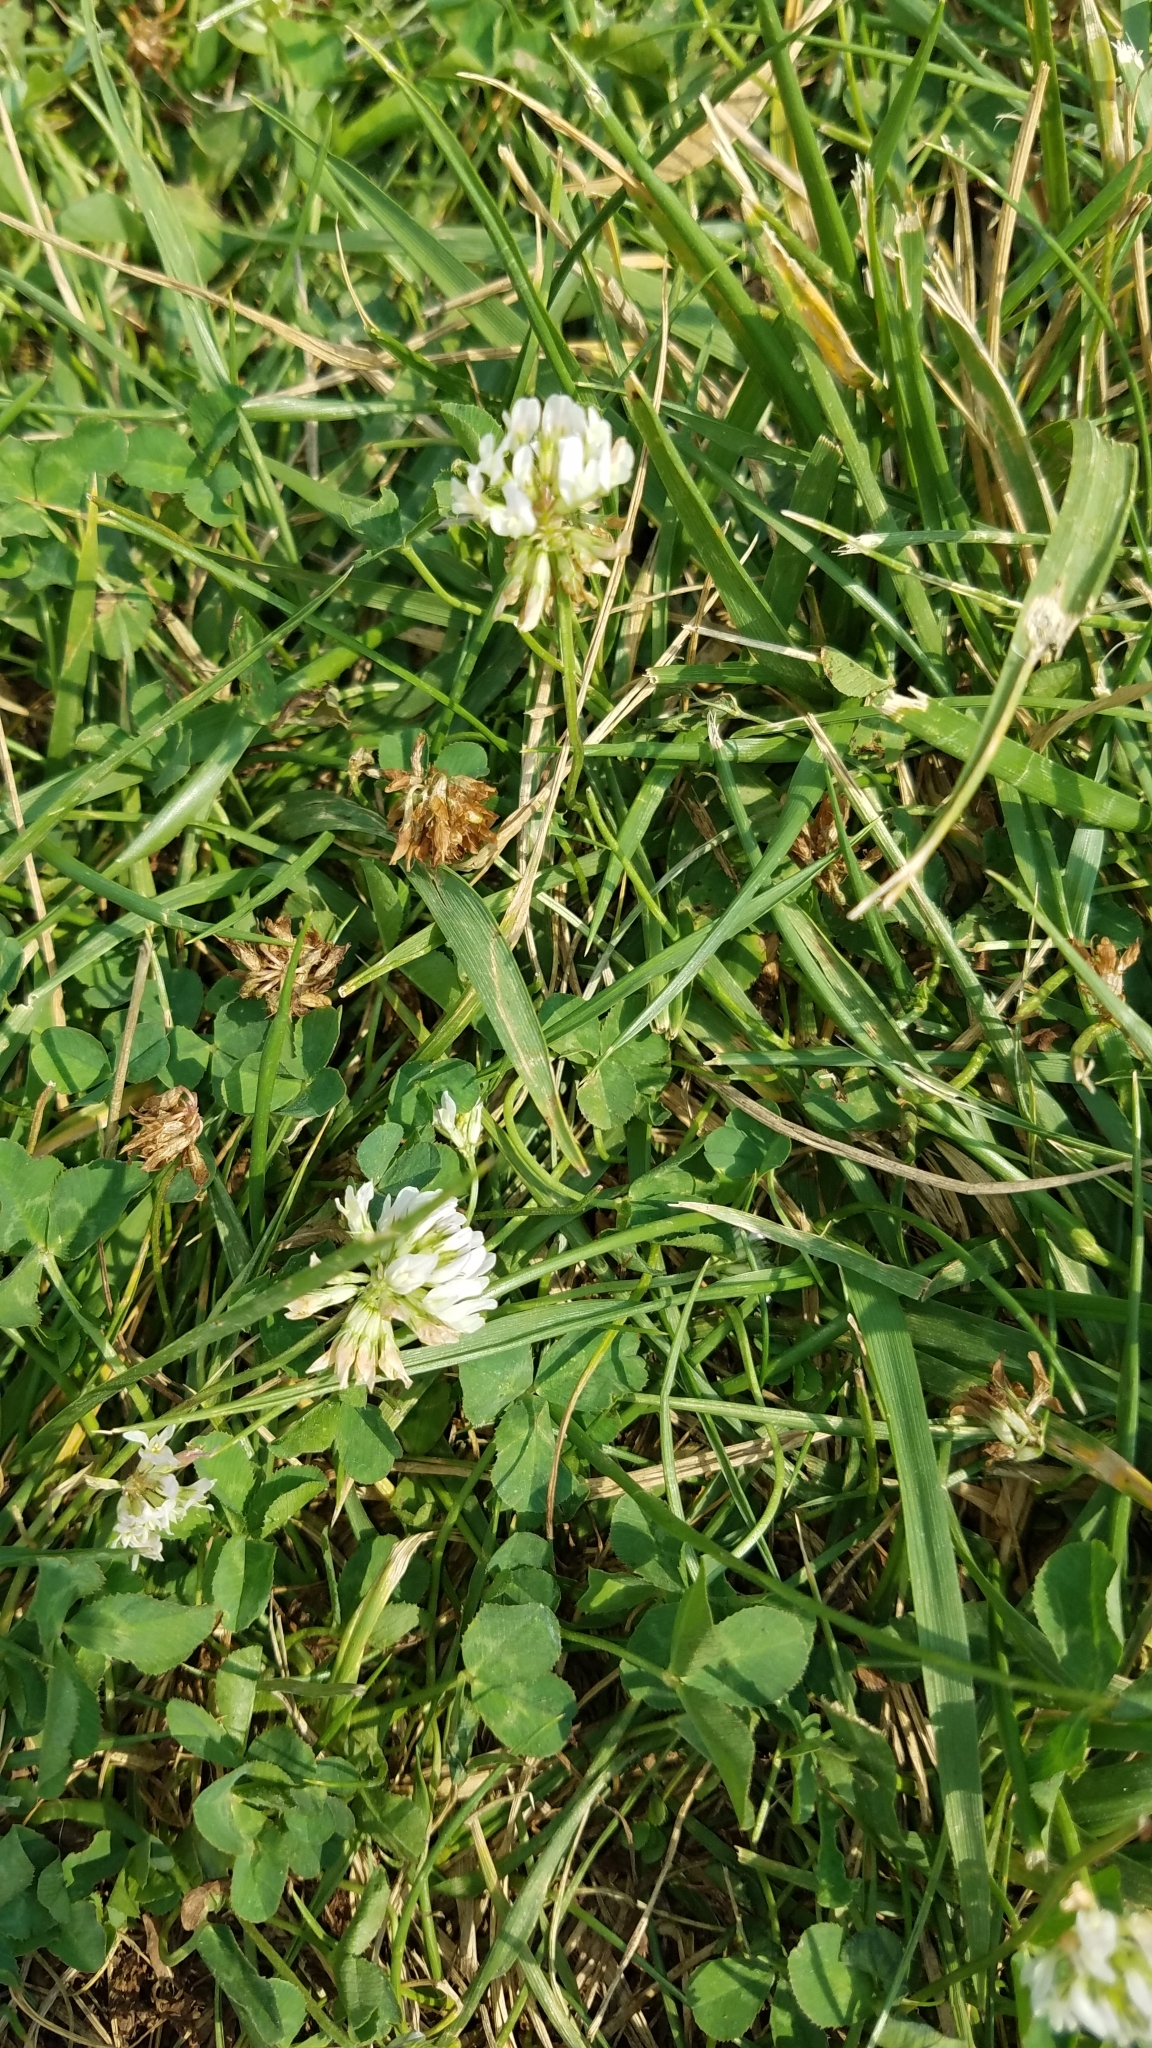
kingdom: Plantae
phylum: Tracheophyta
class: Magnoliopsida
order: Fabales
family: Fabaceae
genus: Trifolium
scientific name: Trifolium repens
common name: White clover
